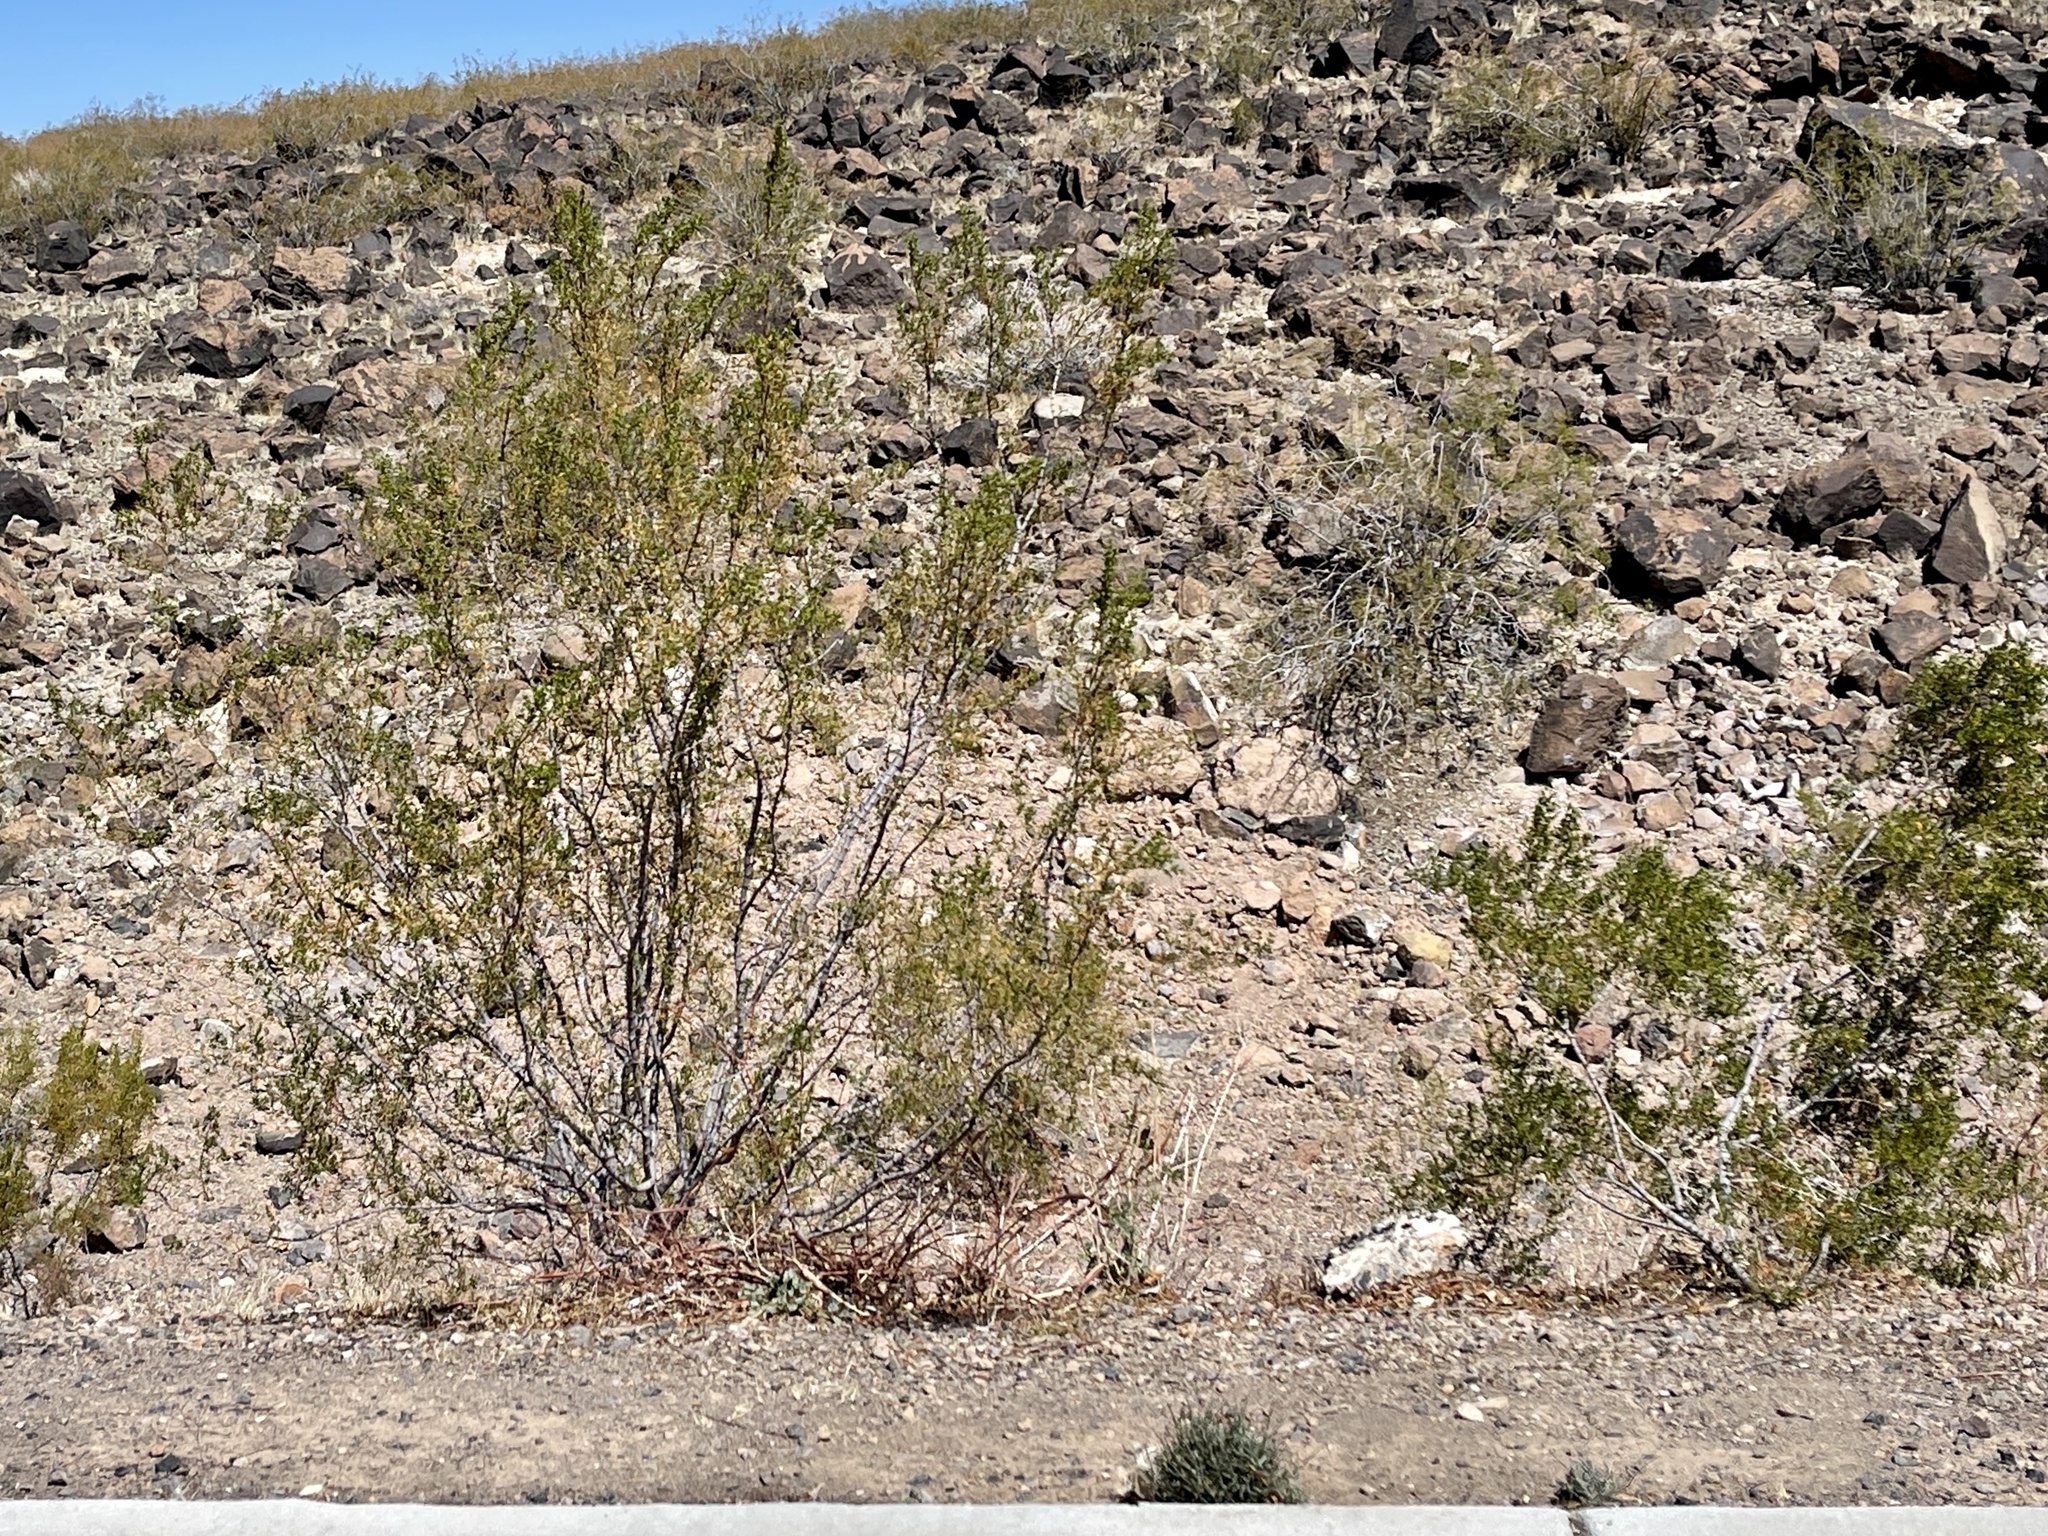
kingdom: Plantae
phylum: Tracheophyta
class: Magnoliopsida
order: Zygophyllales
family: Zygophyllaceae
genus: Larrea
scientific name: Larrea tridentata
